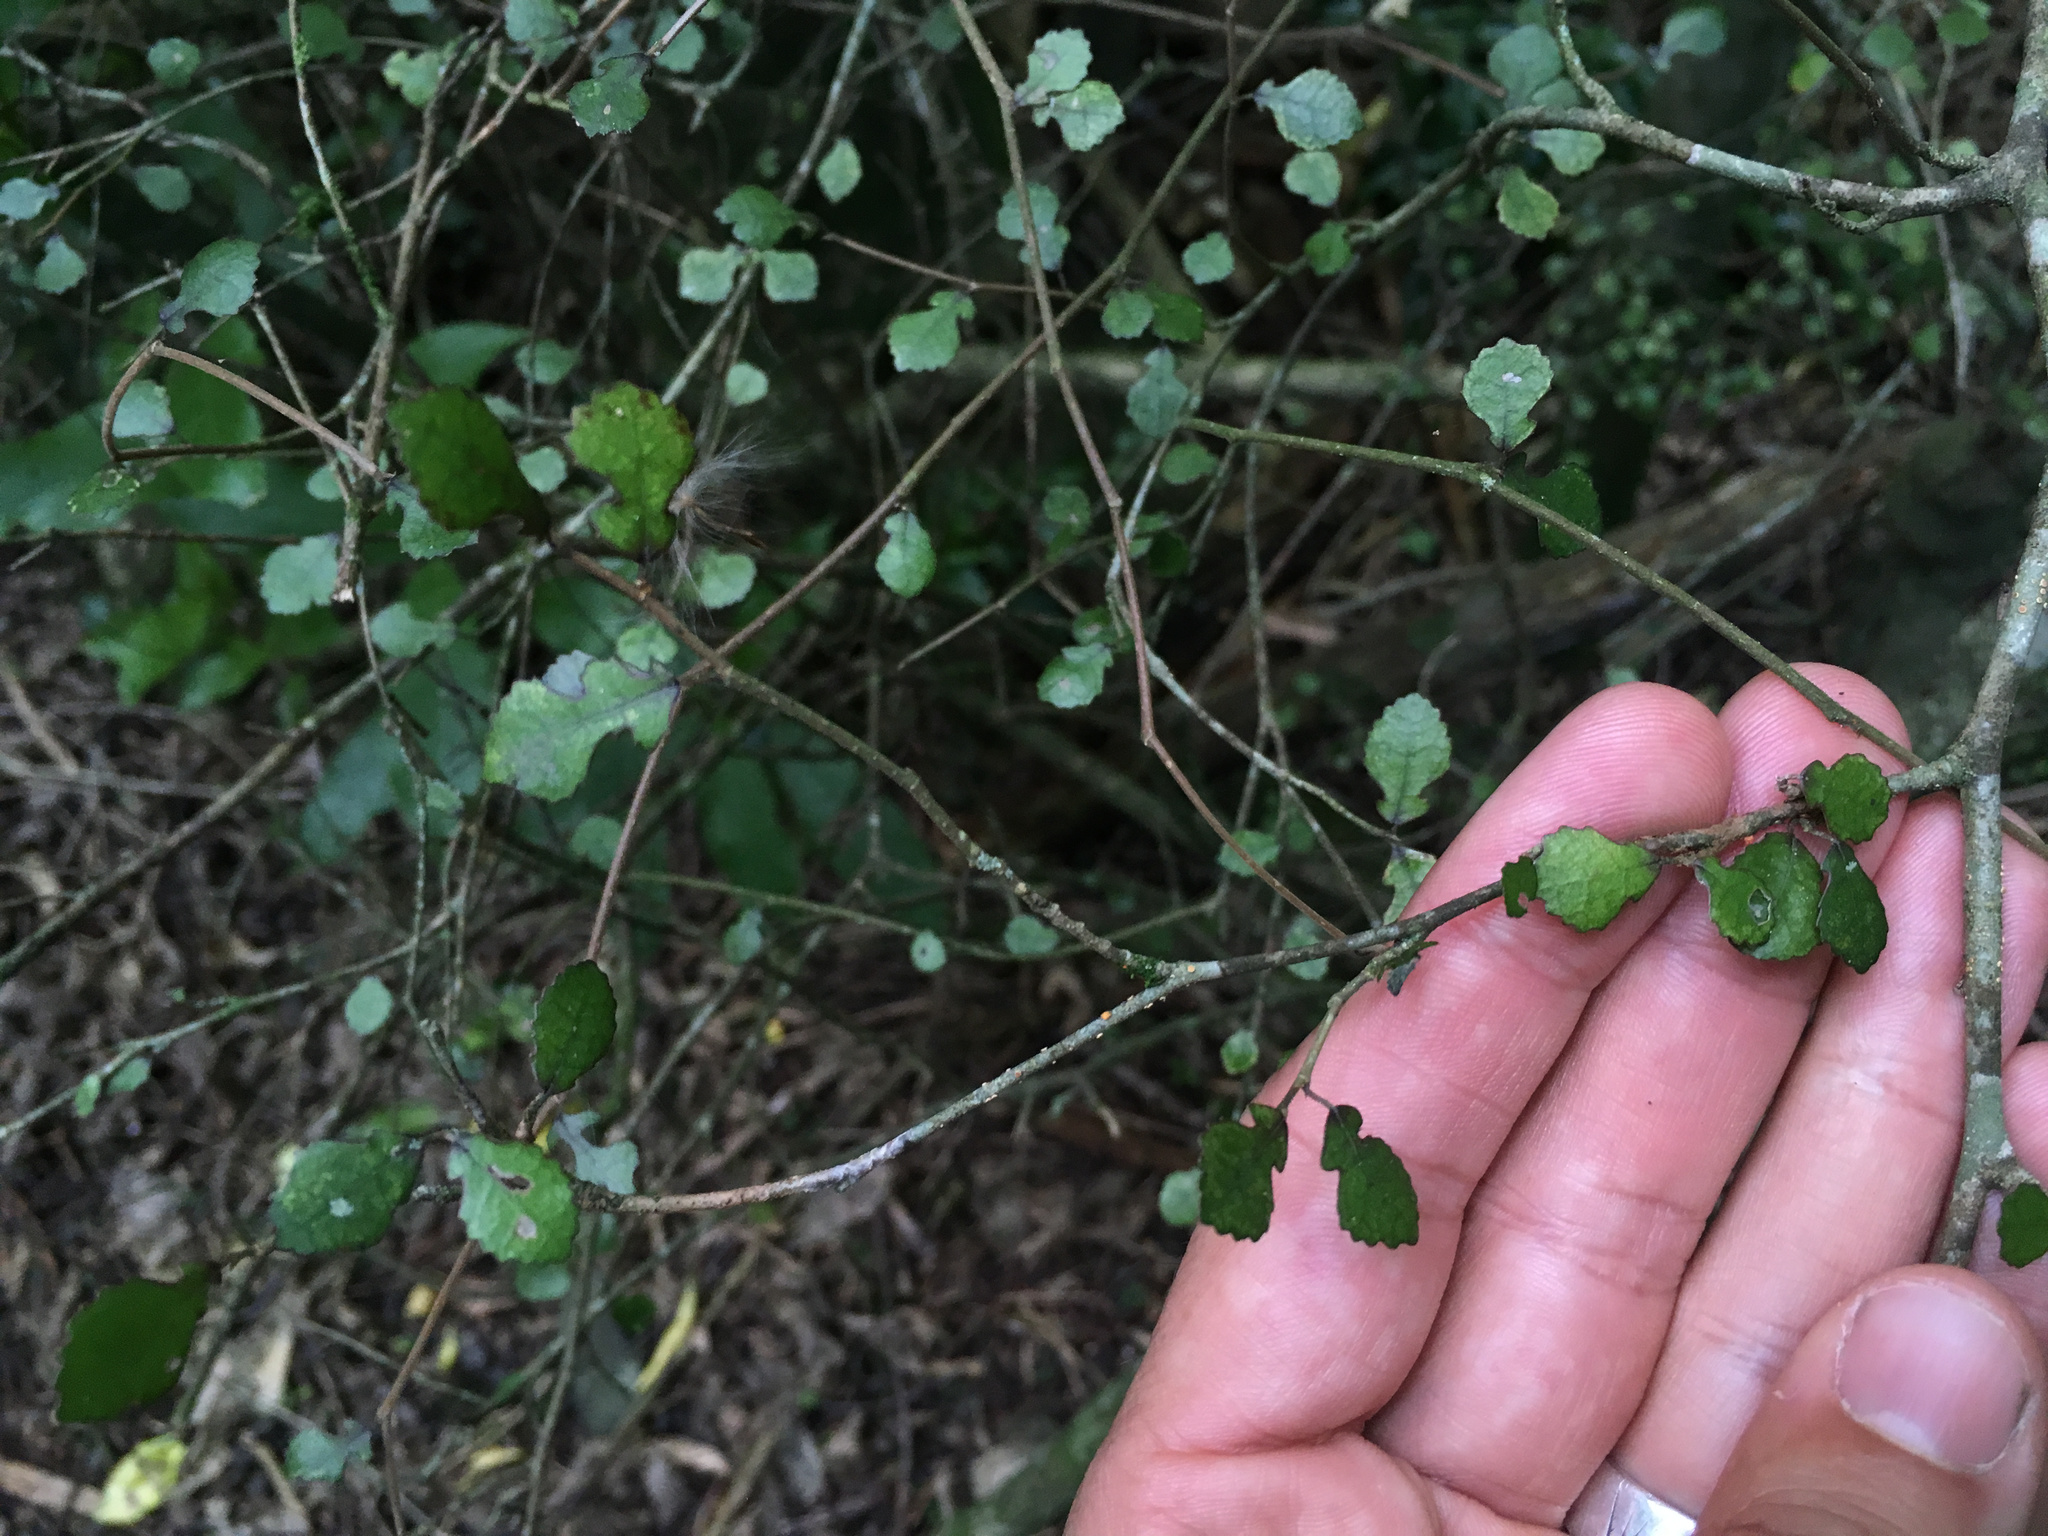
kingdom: Plantae
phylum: Tracheophyta
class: Magnoliopsida
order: Rosales
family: Moraceae
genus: Paratrophis
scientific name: Paratrophis microphylla
